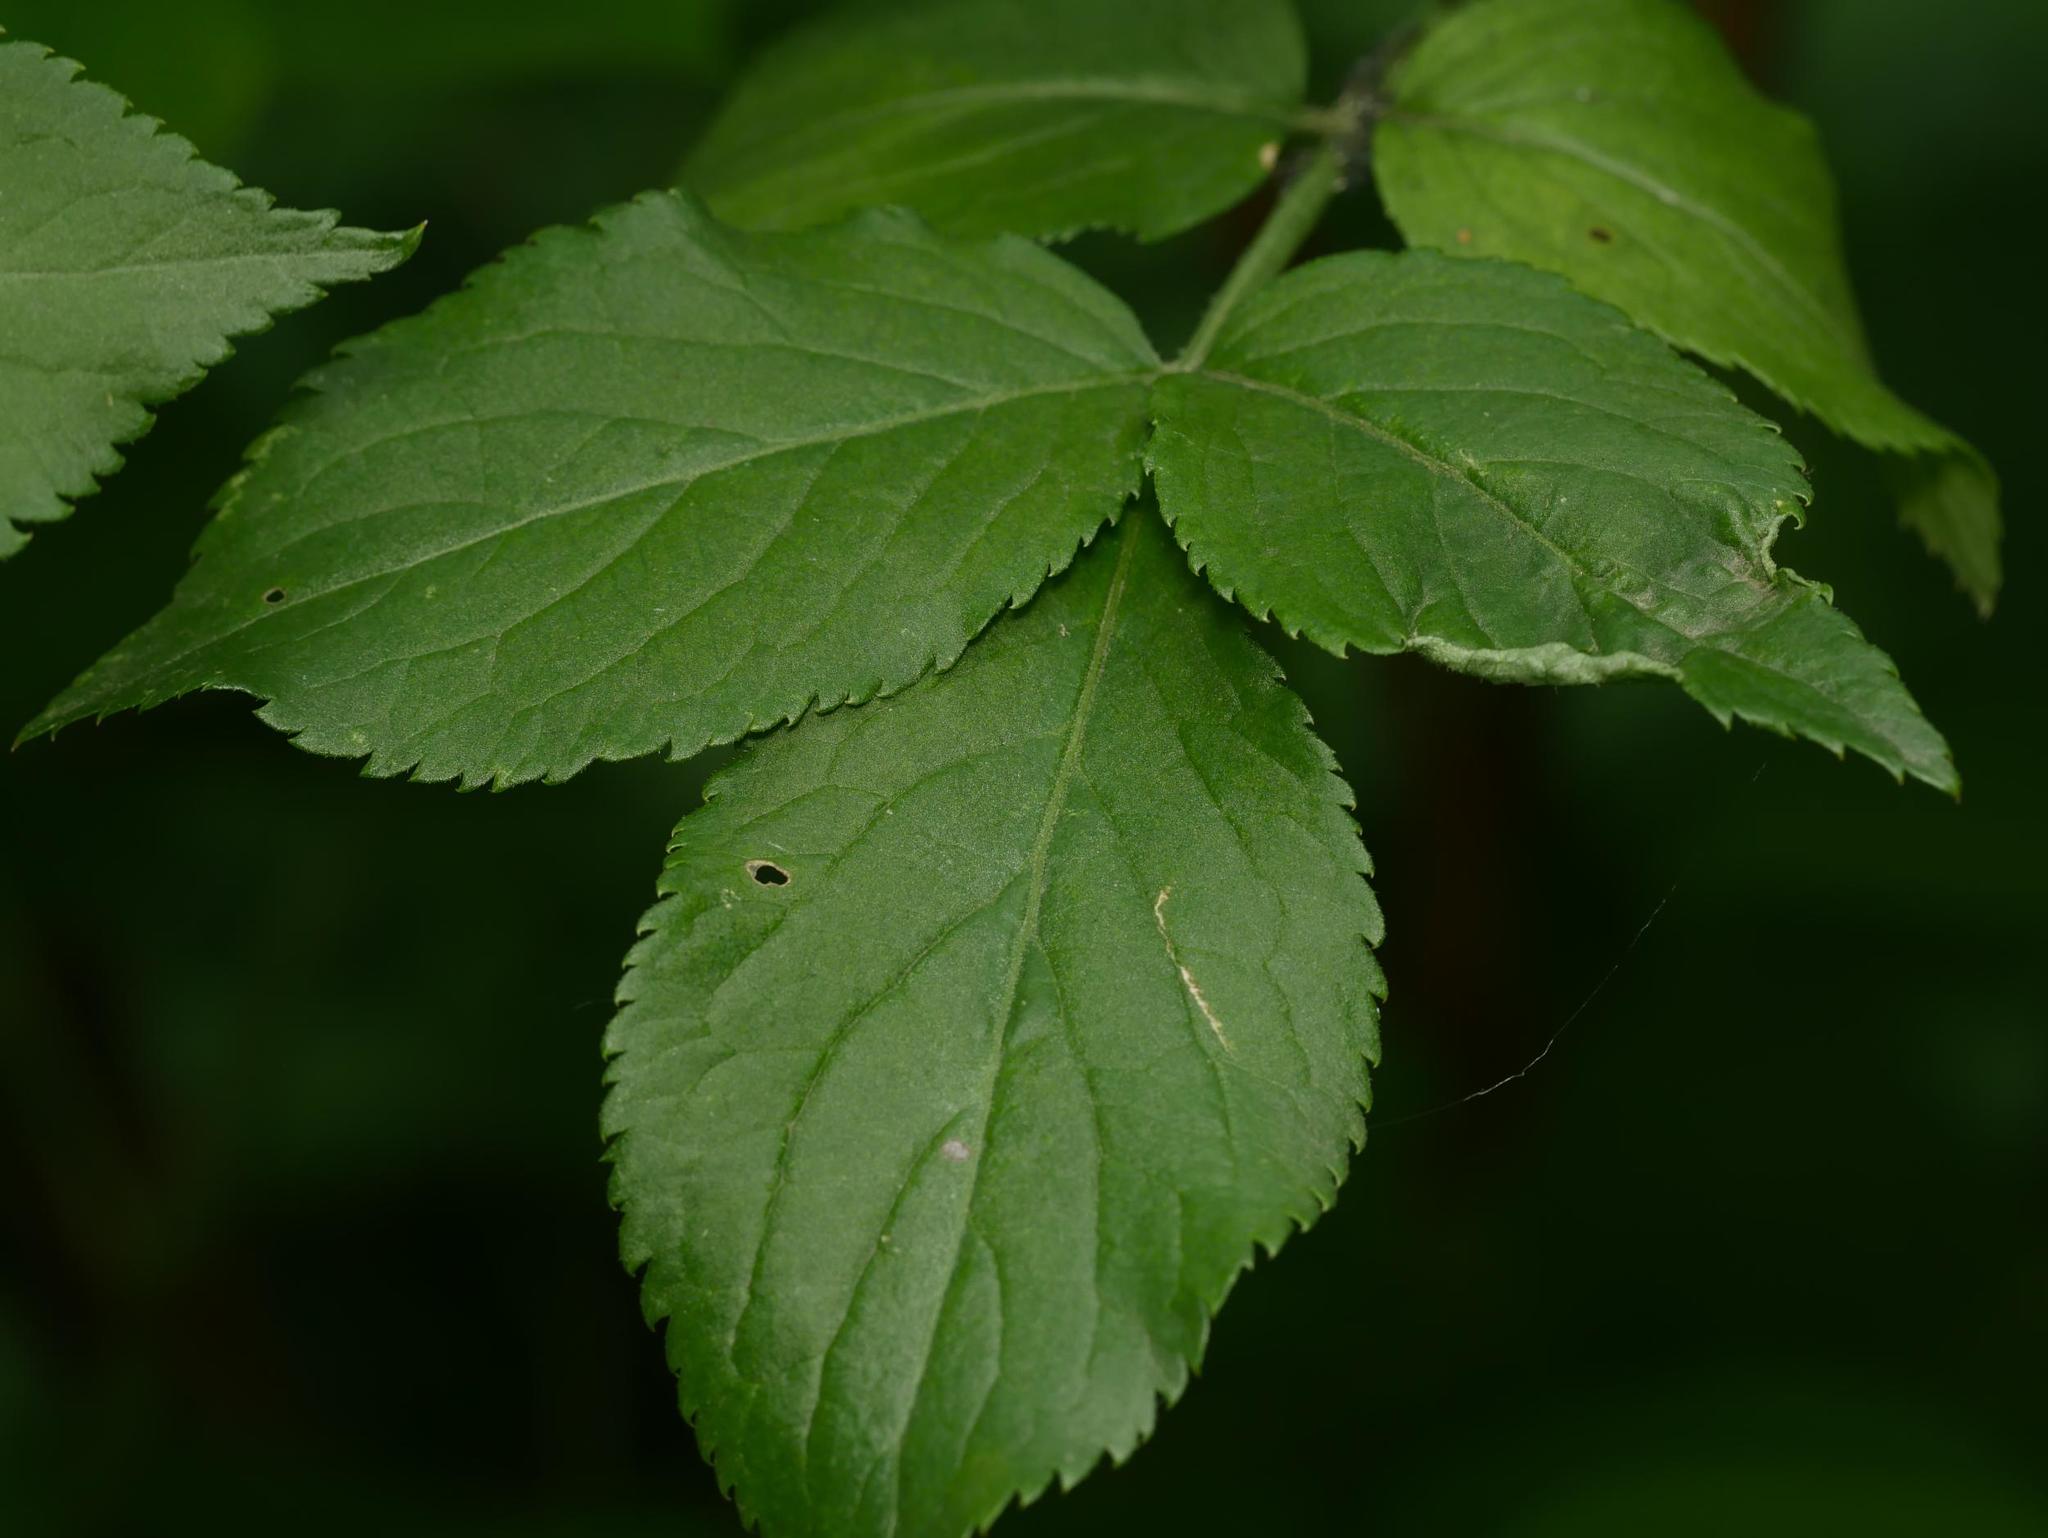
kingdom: Plantae
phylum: Tracheophyta
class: Magnoliopsida
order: Dipsacales
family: Viburnaceae
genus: Sambucus
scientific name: Sambucus nigra
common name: Elder
